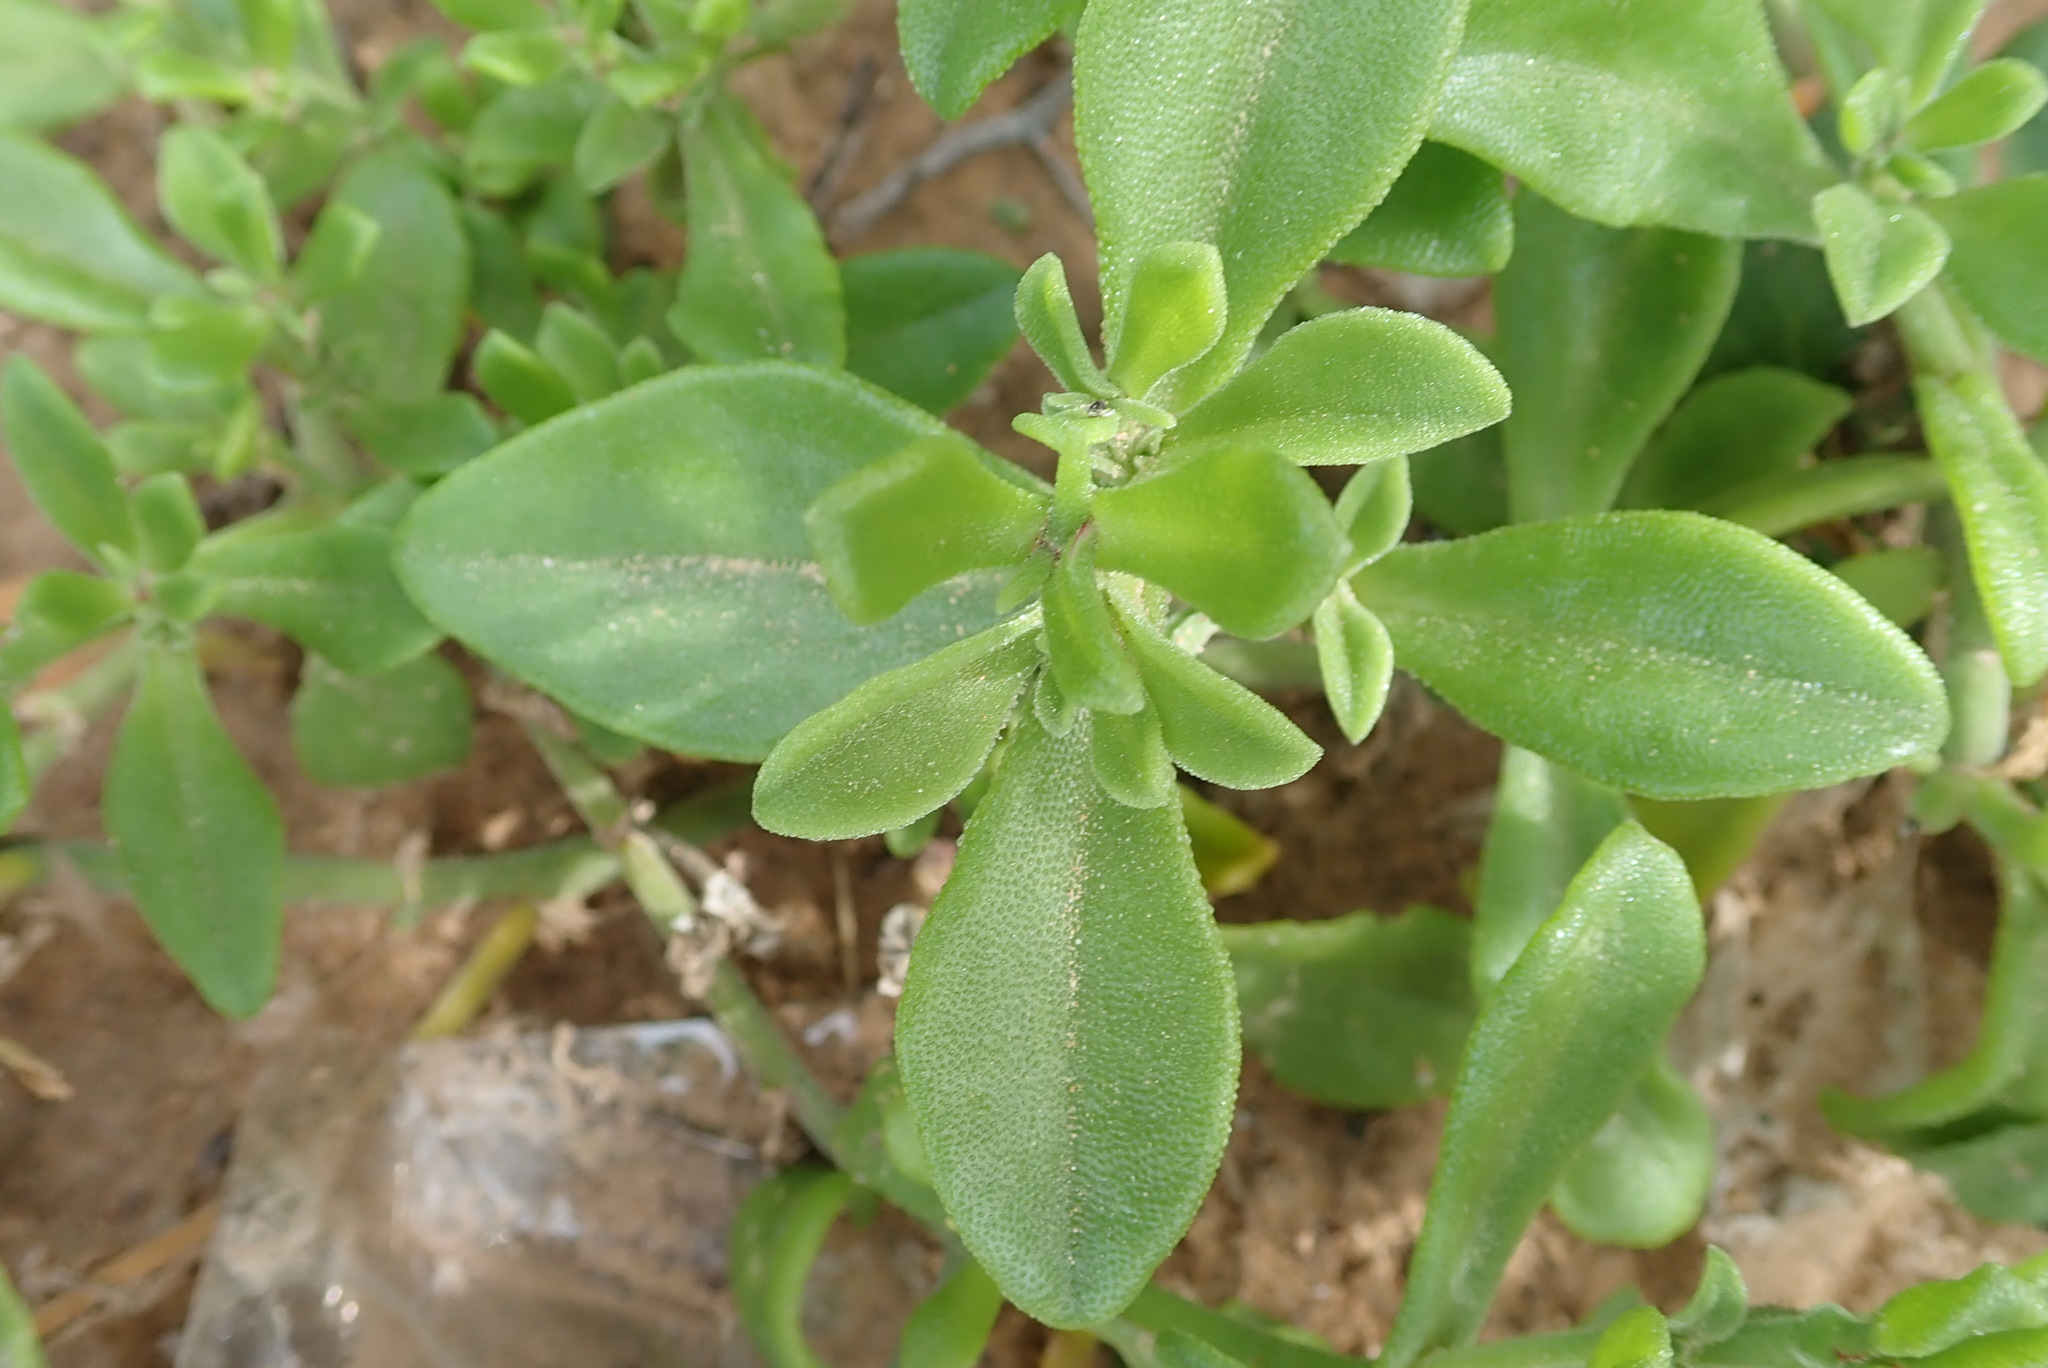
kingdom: Plantae
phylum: Tracheophyta
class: Magnoliopsida
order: Caryophyllales
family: Aizoaceae
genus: Mesembryanthemum
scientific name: Mesembryanthemum aitonis
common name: Angled iceplant
